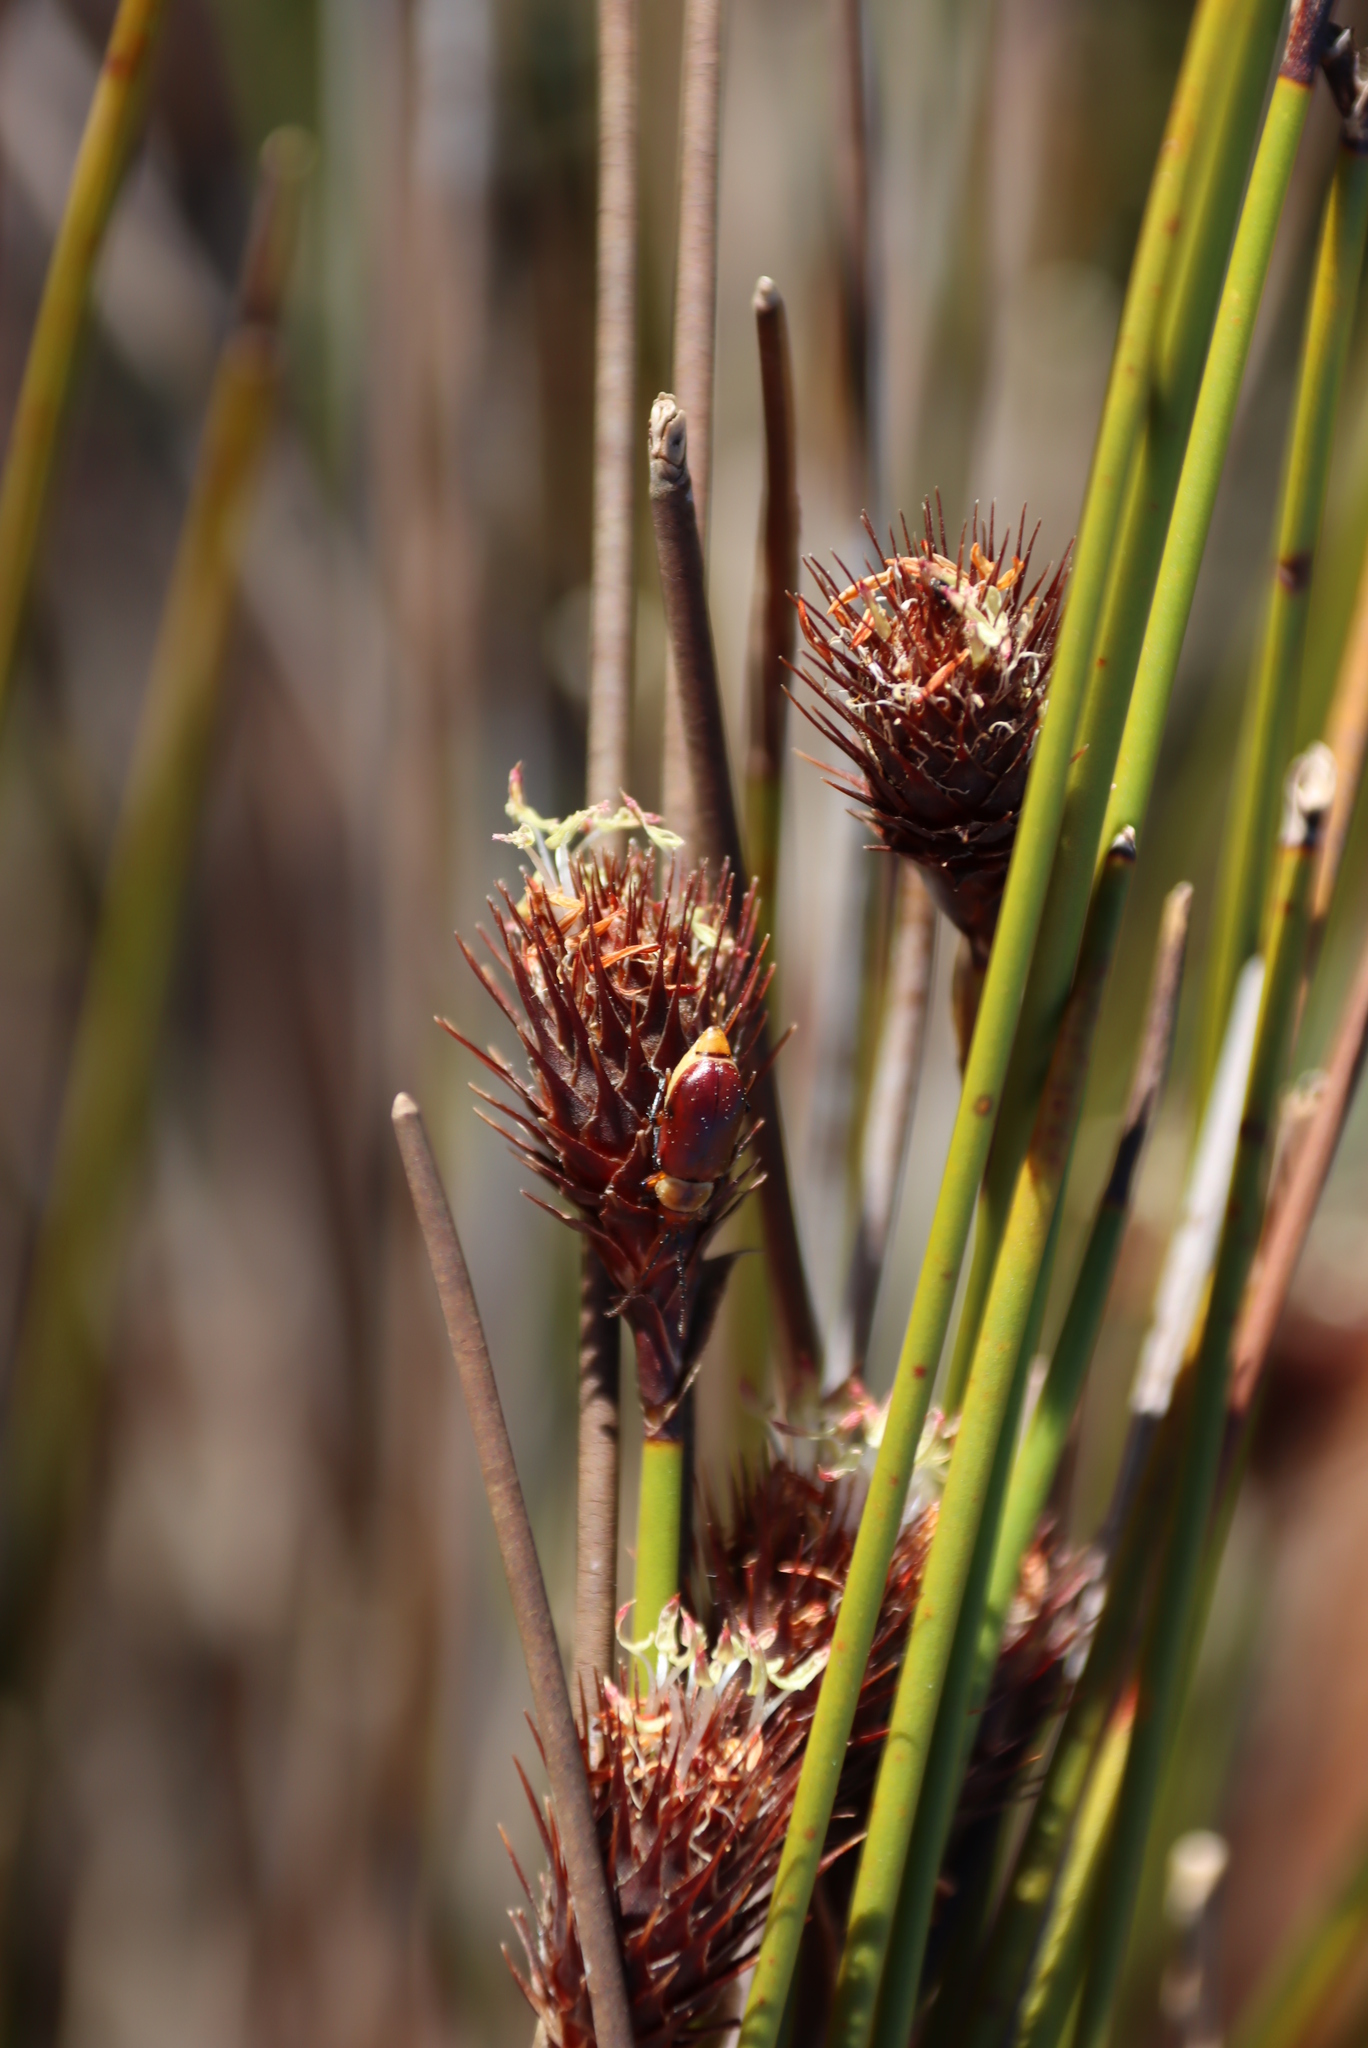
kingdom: Plantae
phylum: Tracheophyta
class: Liliopsida
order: Poales
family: Restionaceae
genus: Hypodiscus
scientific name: Hypodiscus aristatus
